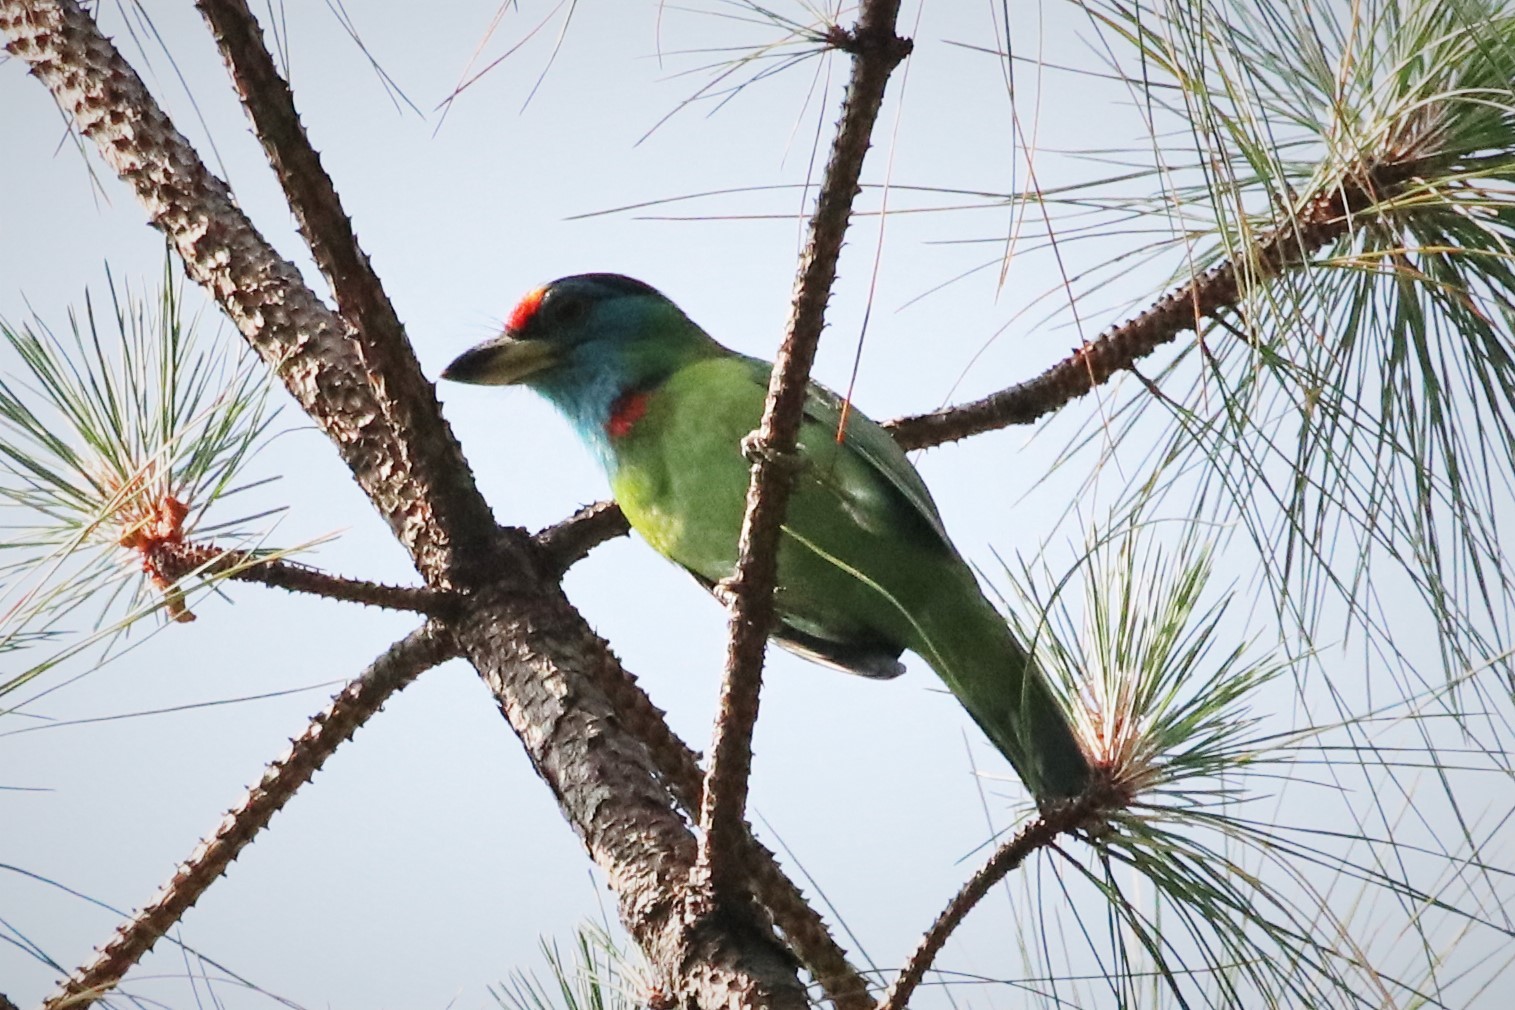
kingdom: Animalia
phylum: Chordata
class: Aves
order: Piciformes
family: Megalaimidae
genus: Psilopogon
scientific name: Psilopogon asiaticus
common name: Blue-throated barbet
